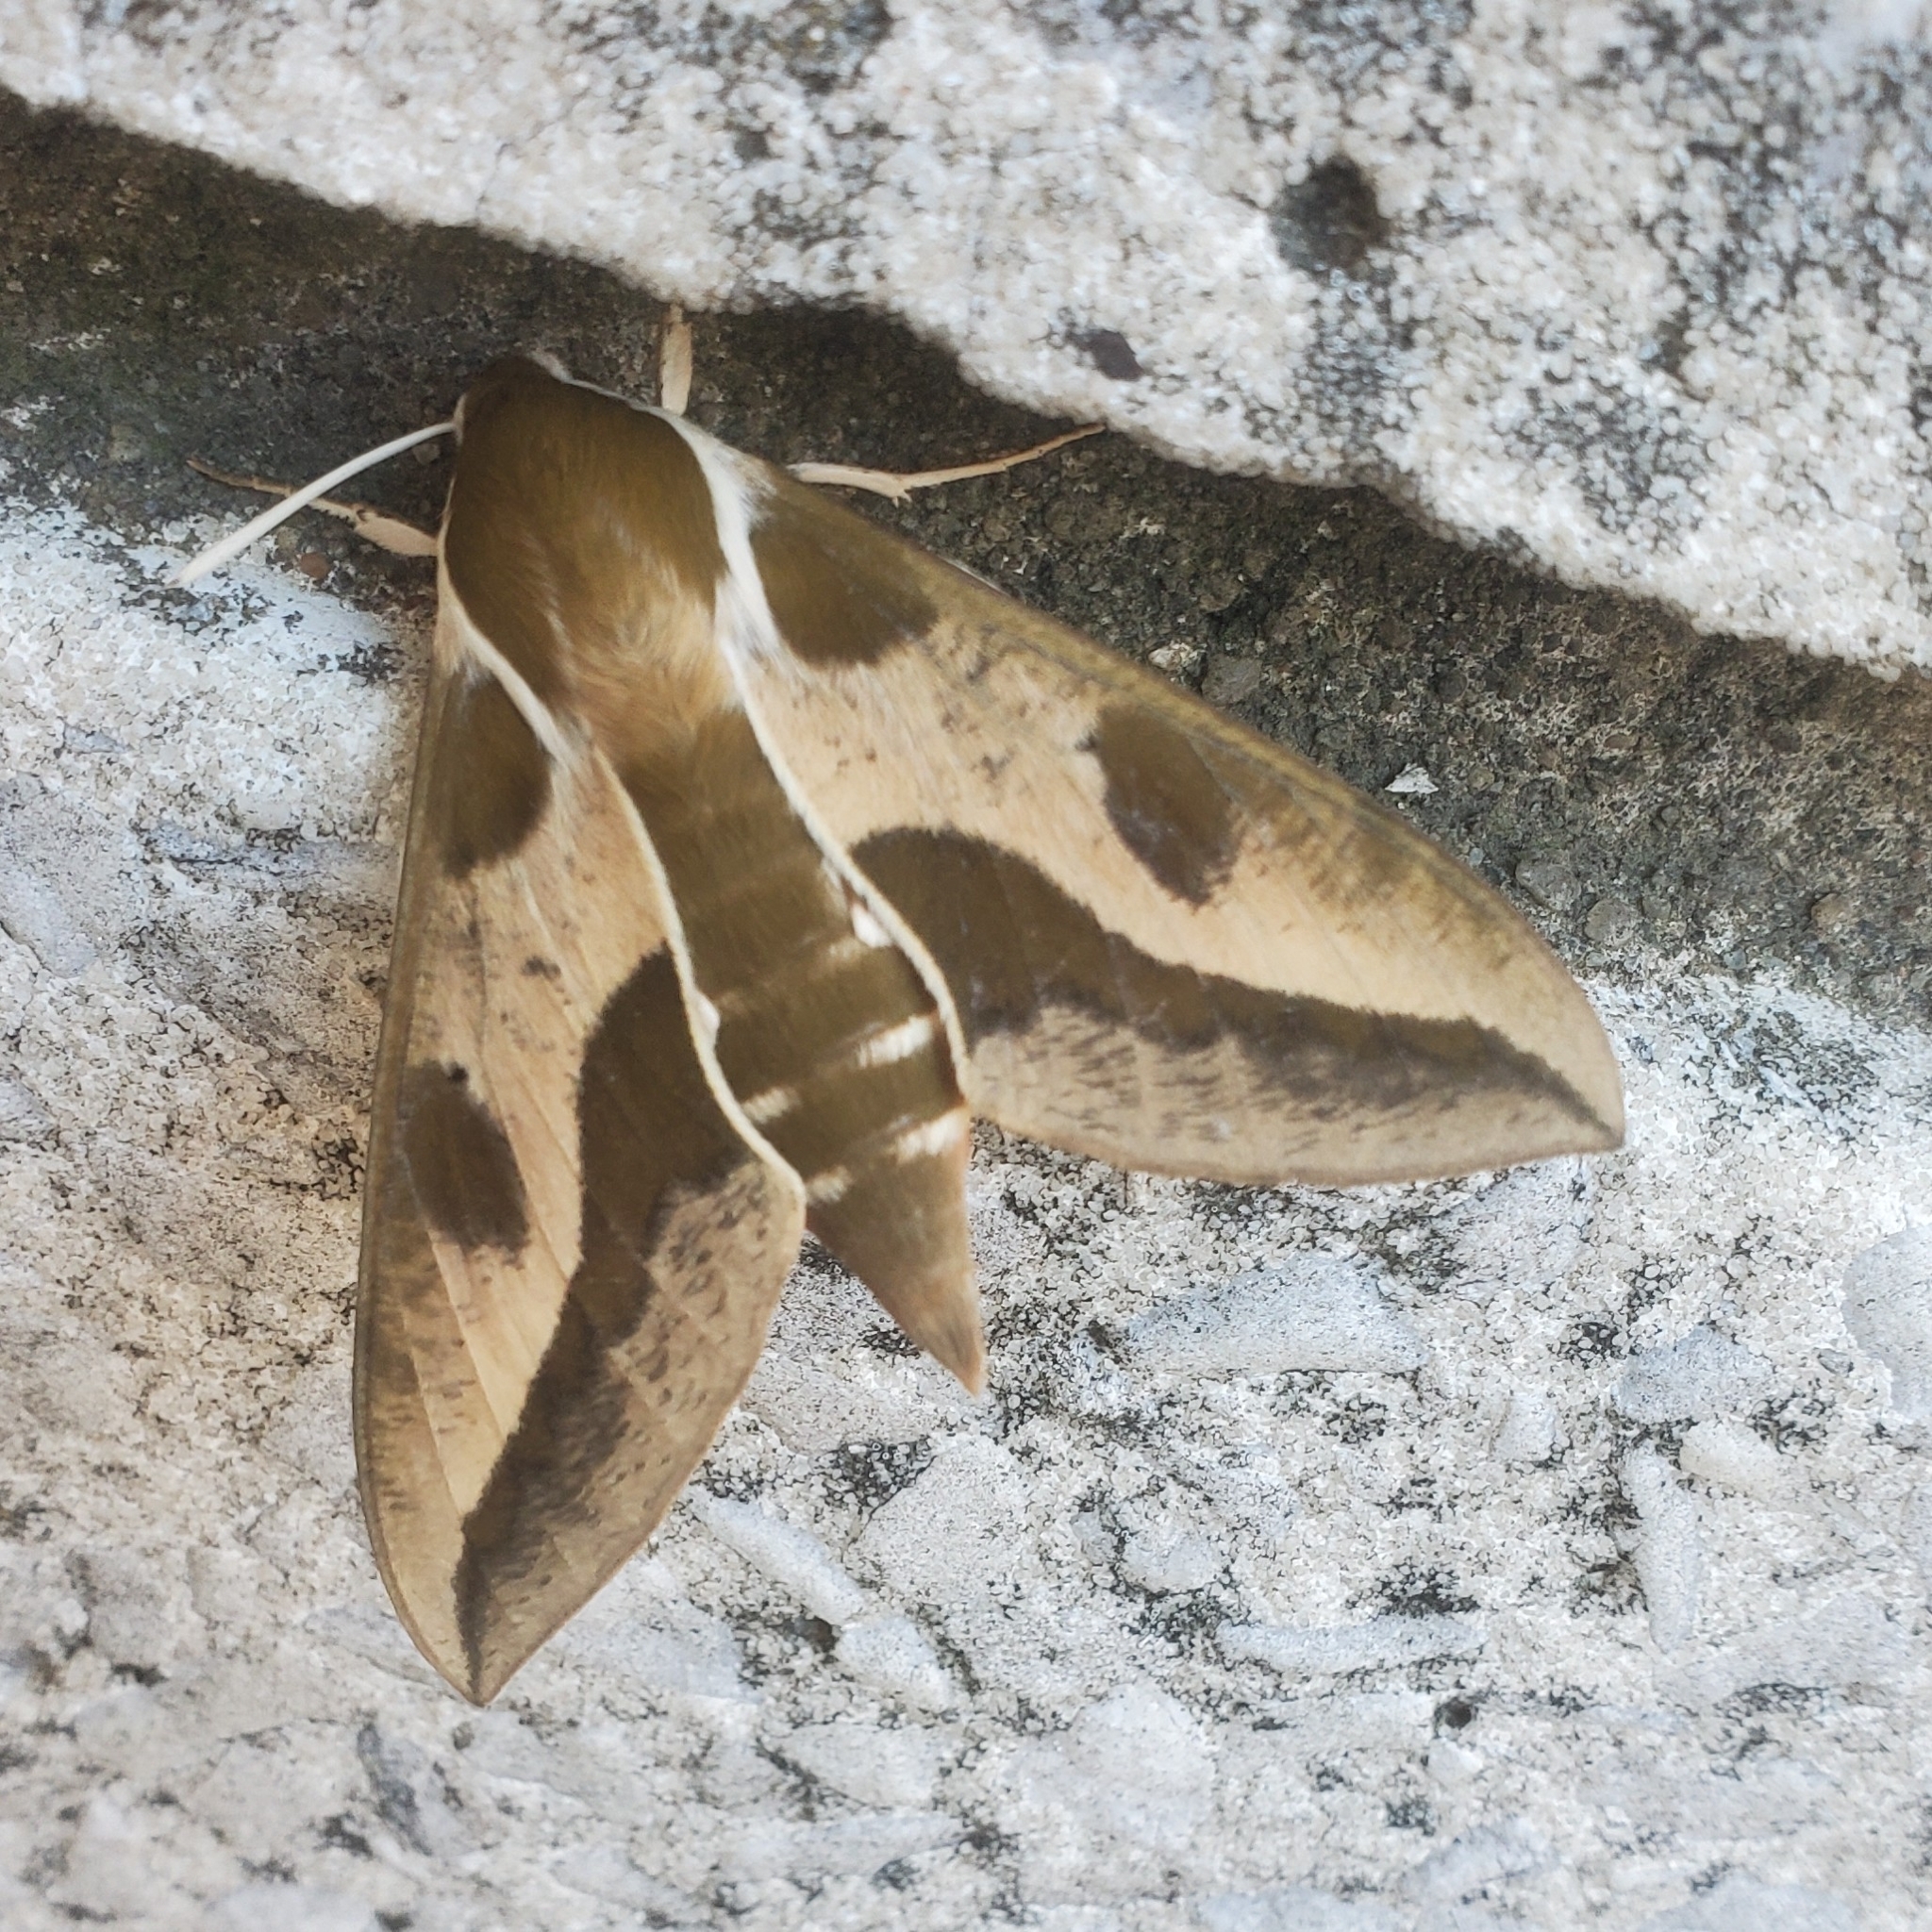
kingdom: Animalia
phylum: Arthropoda
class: Insecta
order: Lepidoptera
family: Sphingidae
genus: Hyles
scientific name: Hyles euphorbiae
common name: Spurge hawk-moth
